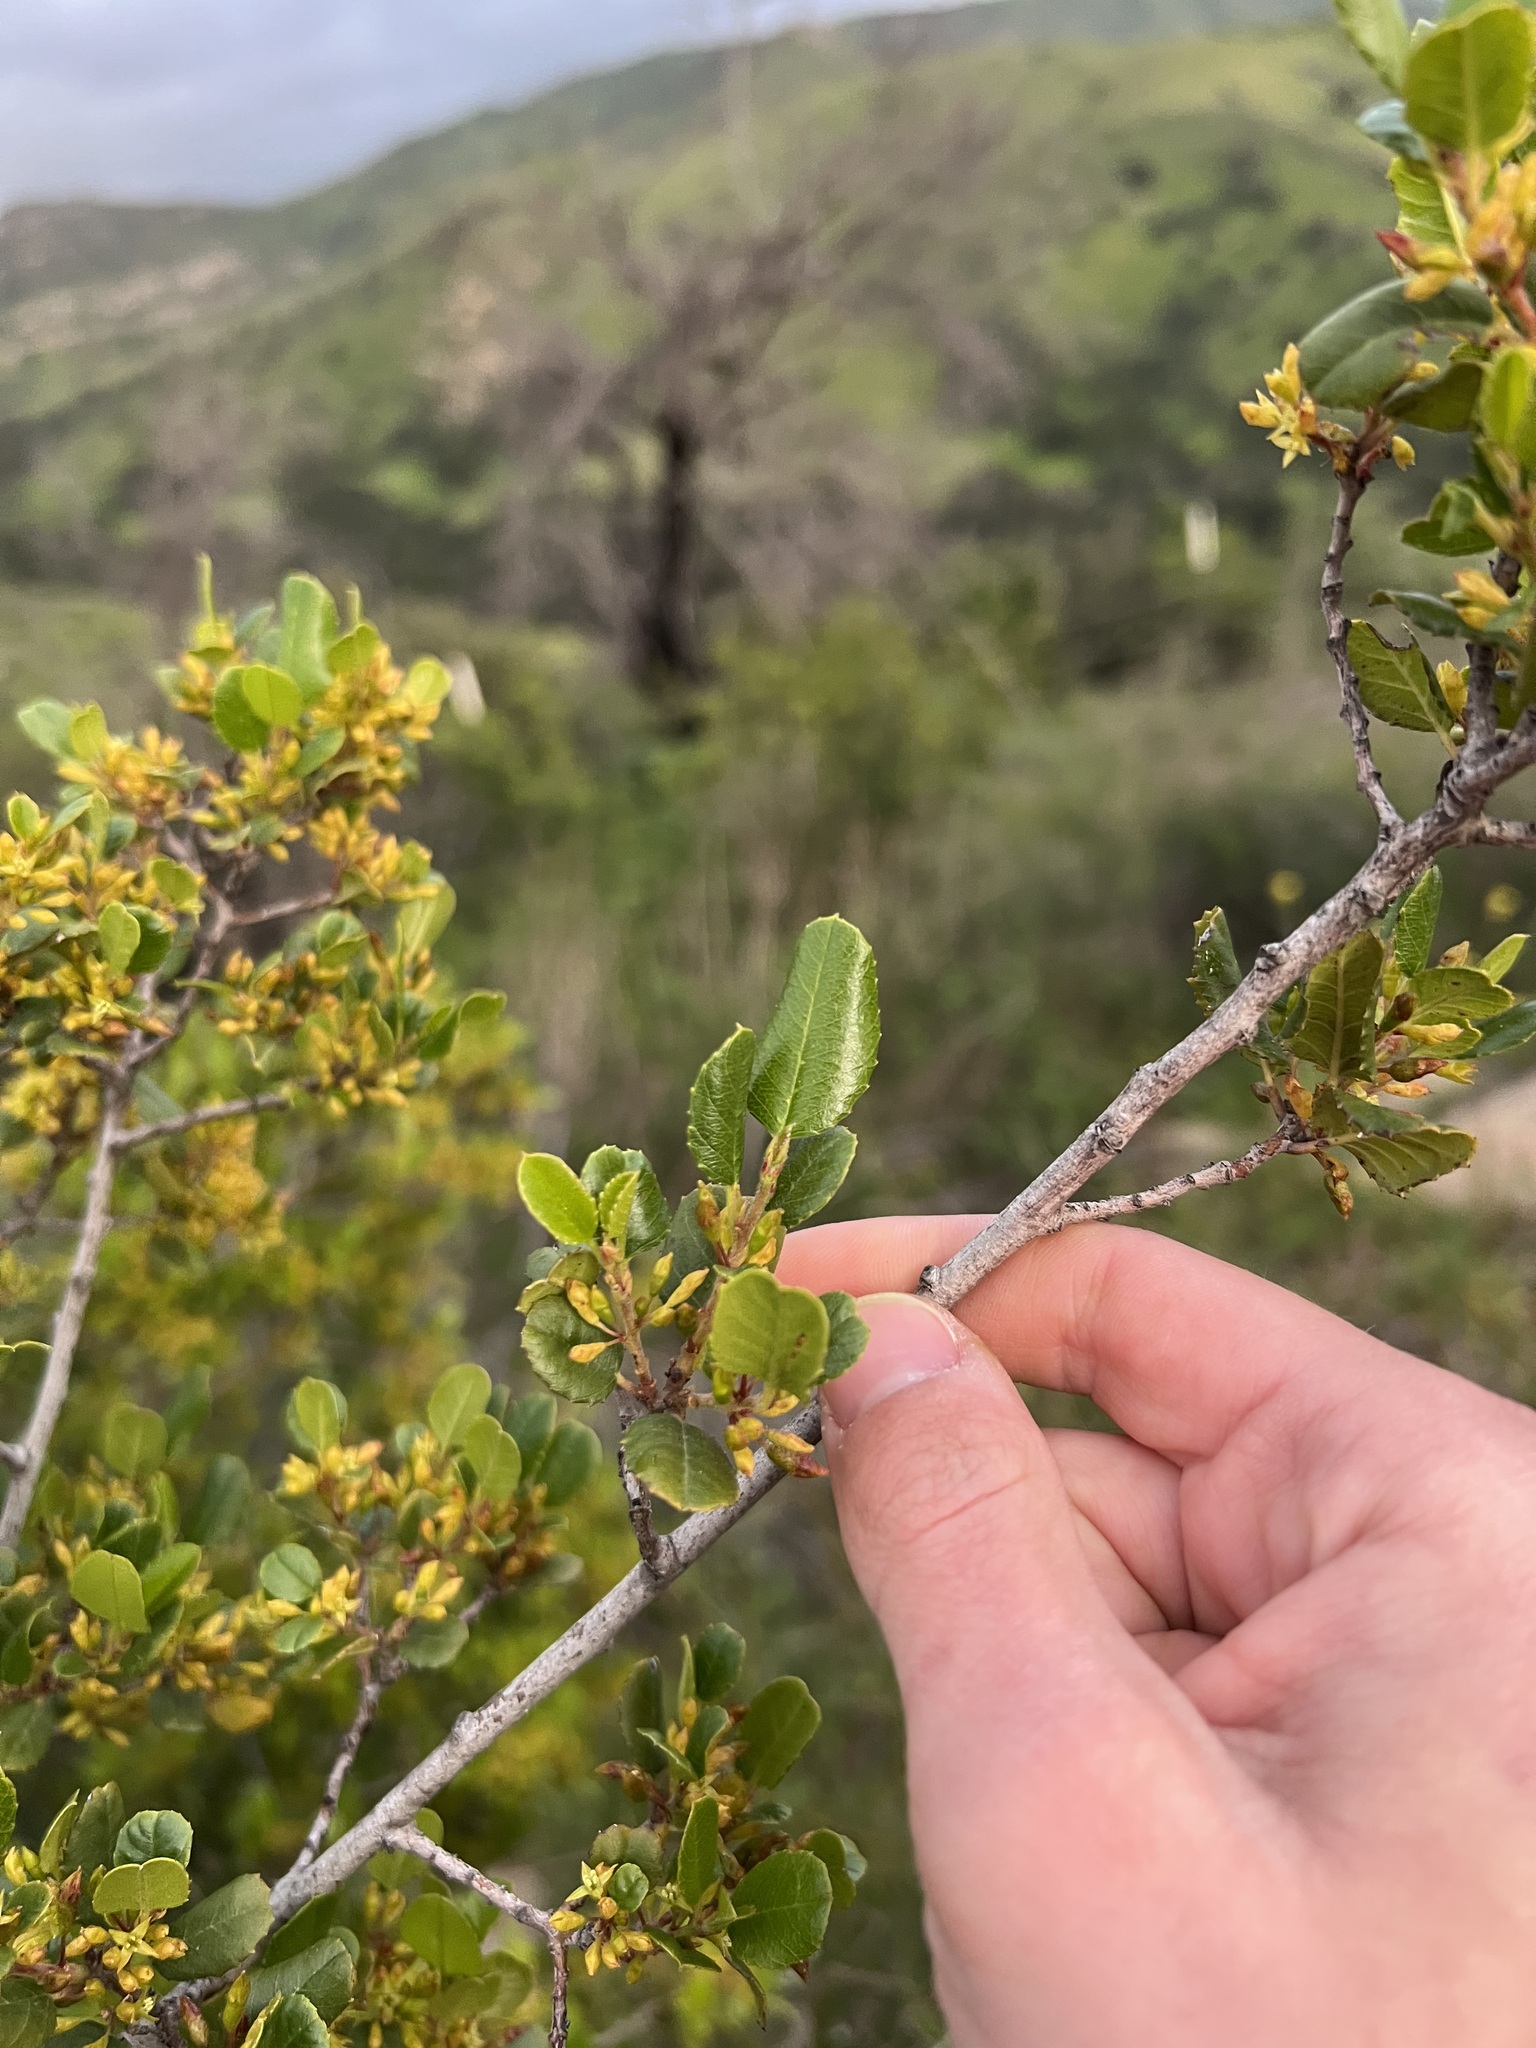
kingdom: Plantae
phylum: Tracheophyta
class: Magnoliopsida
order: Rosales
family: Rhamnaceae
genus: Endotropis
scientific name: Endotropis crocea
